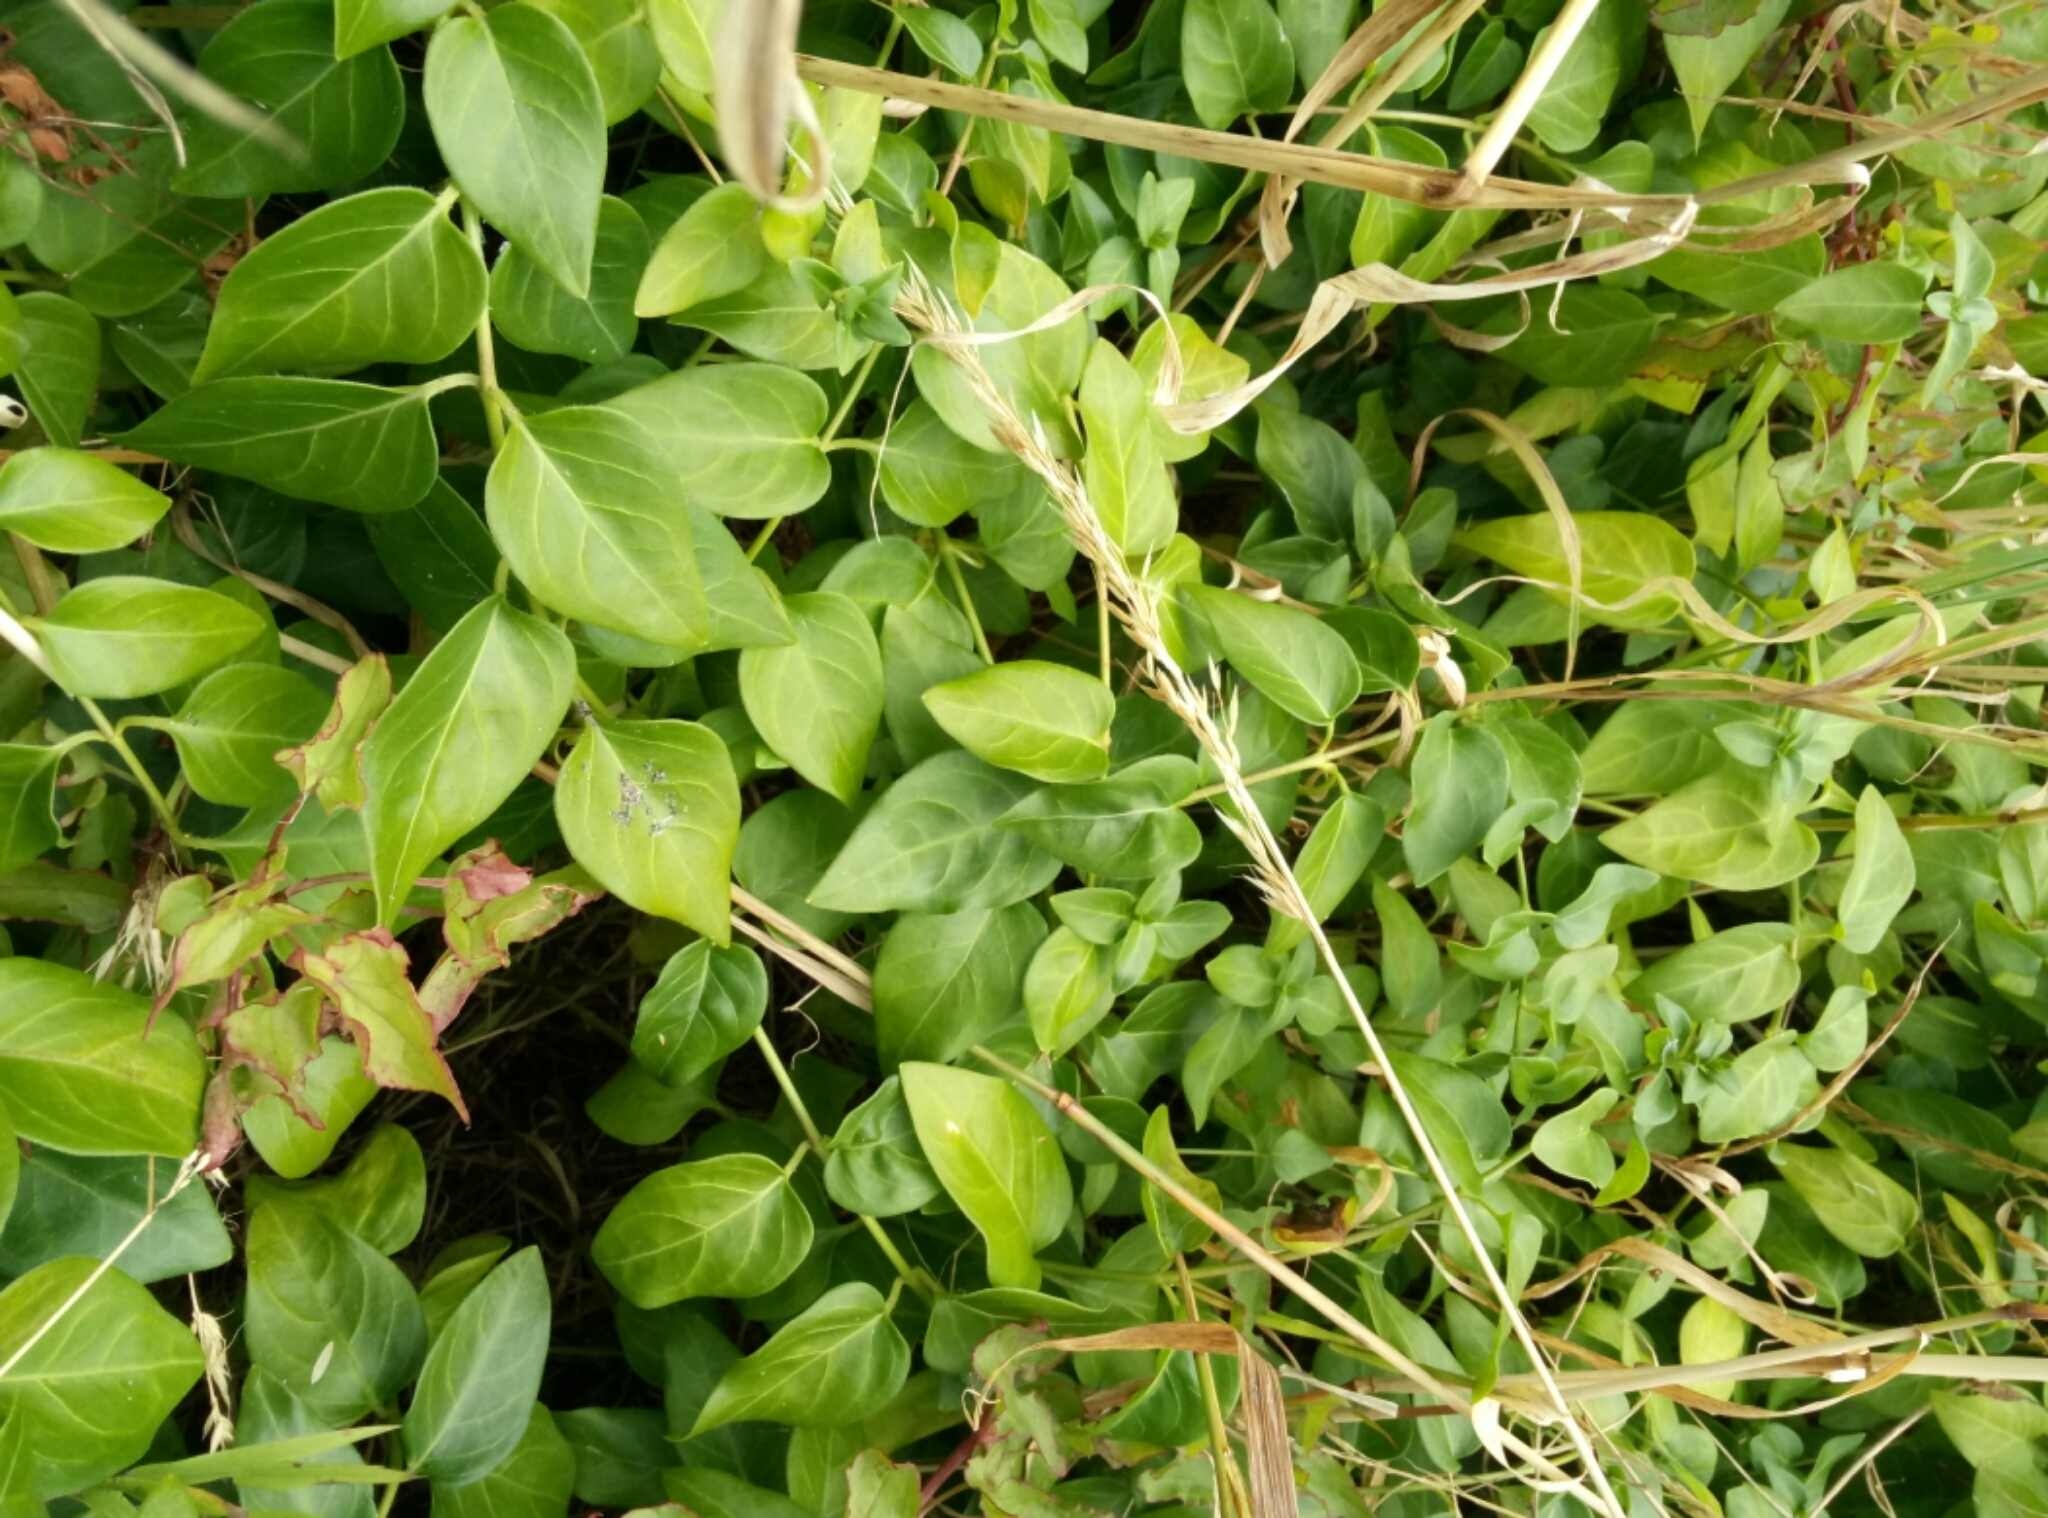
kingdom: Plantae
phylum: Tracheophyta
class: Magnoliopsida
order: Gentianales
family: Apocynaceae
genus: Vinca
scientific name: Vinca major
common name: Greater periwinkle
